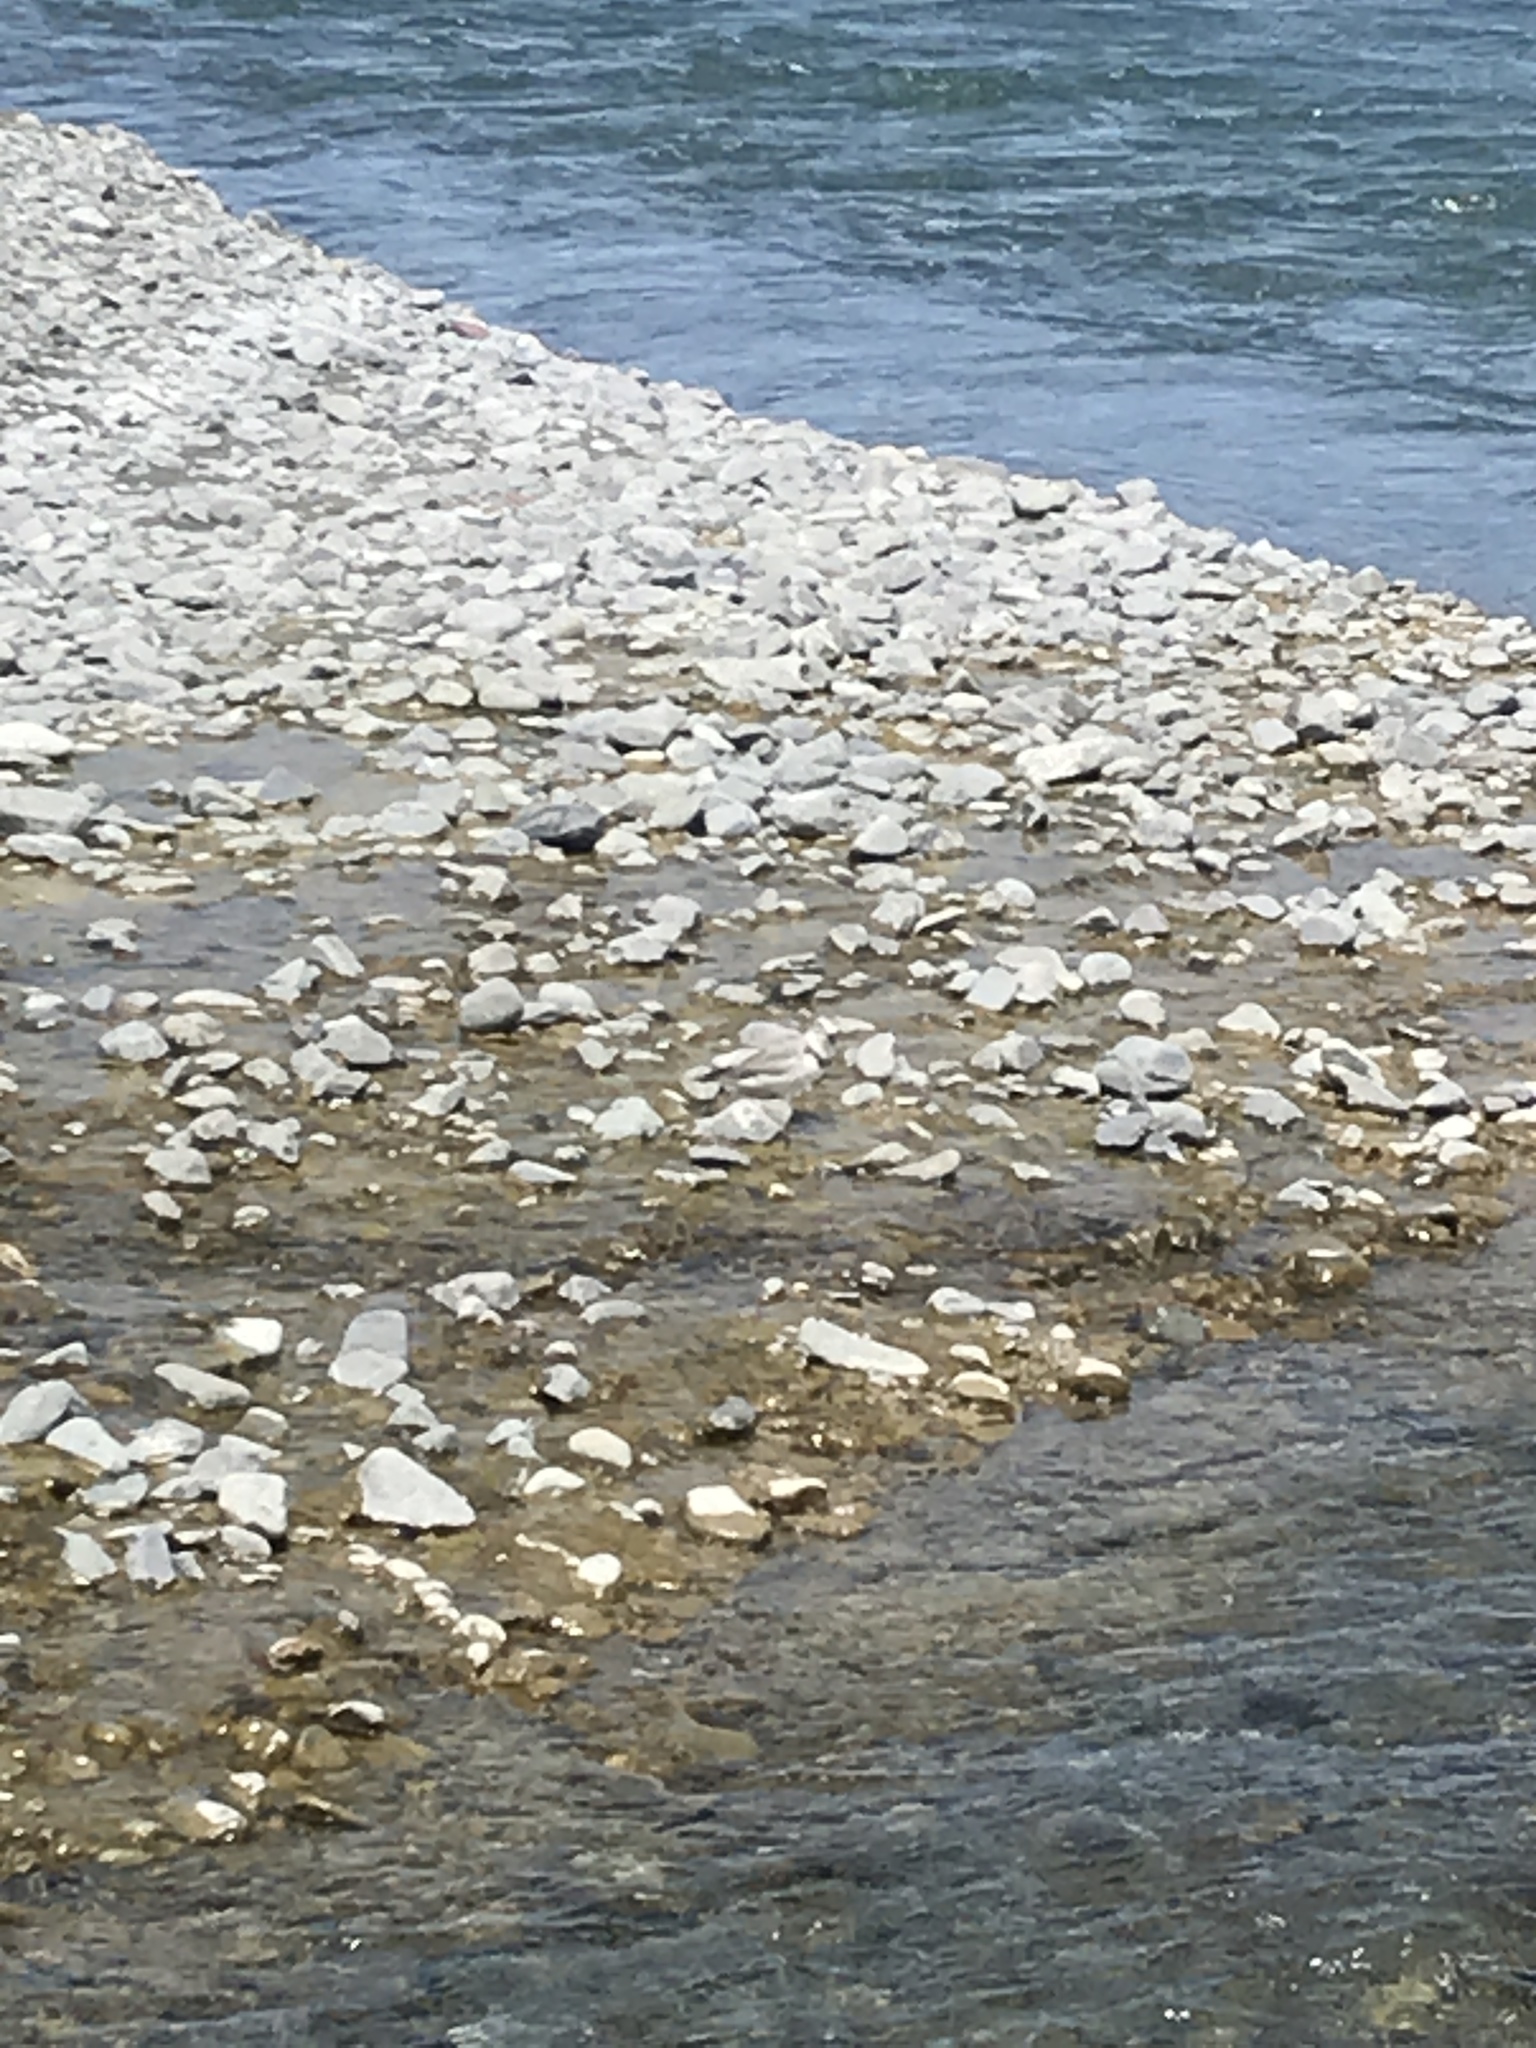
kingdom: Animalia
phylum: Chordata
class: Aves
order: Charadriiformes
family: Charadriidae
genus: Anarhynchus
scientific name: Anarhynchus frontalis
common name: Wrybill
